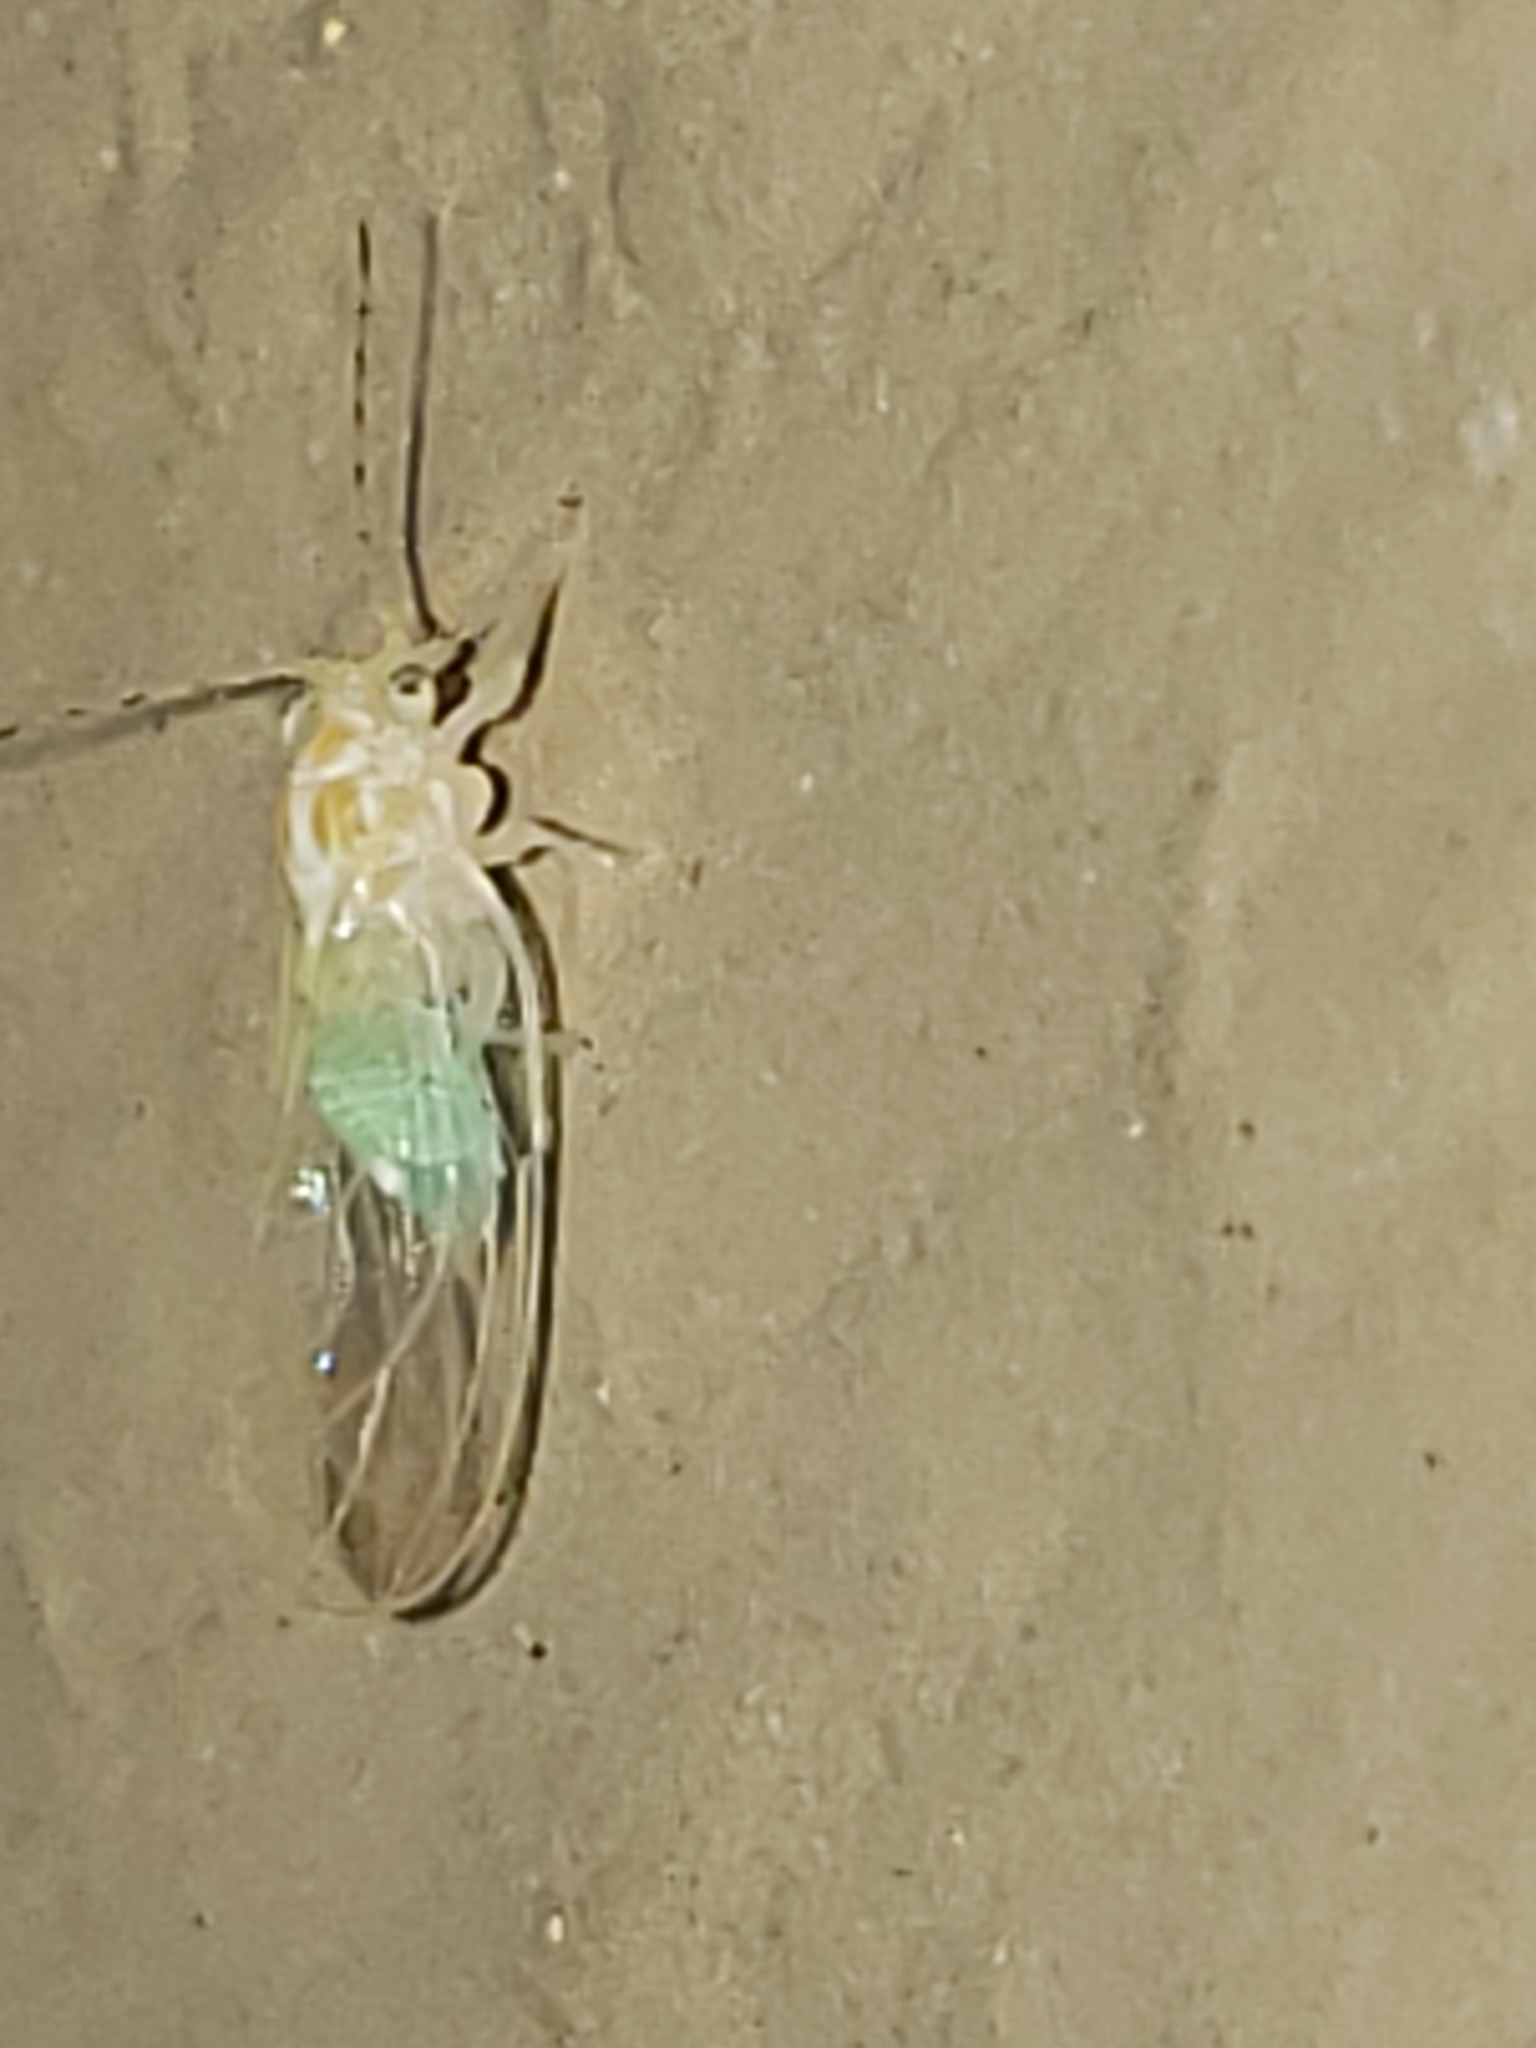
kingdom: Animalia
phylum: Arthropoda
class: Insecta
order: Hemiptera
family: Psyllidae
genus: Cacopsylla
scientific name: Cacopsylla annulata
